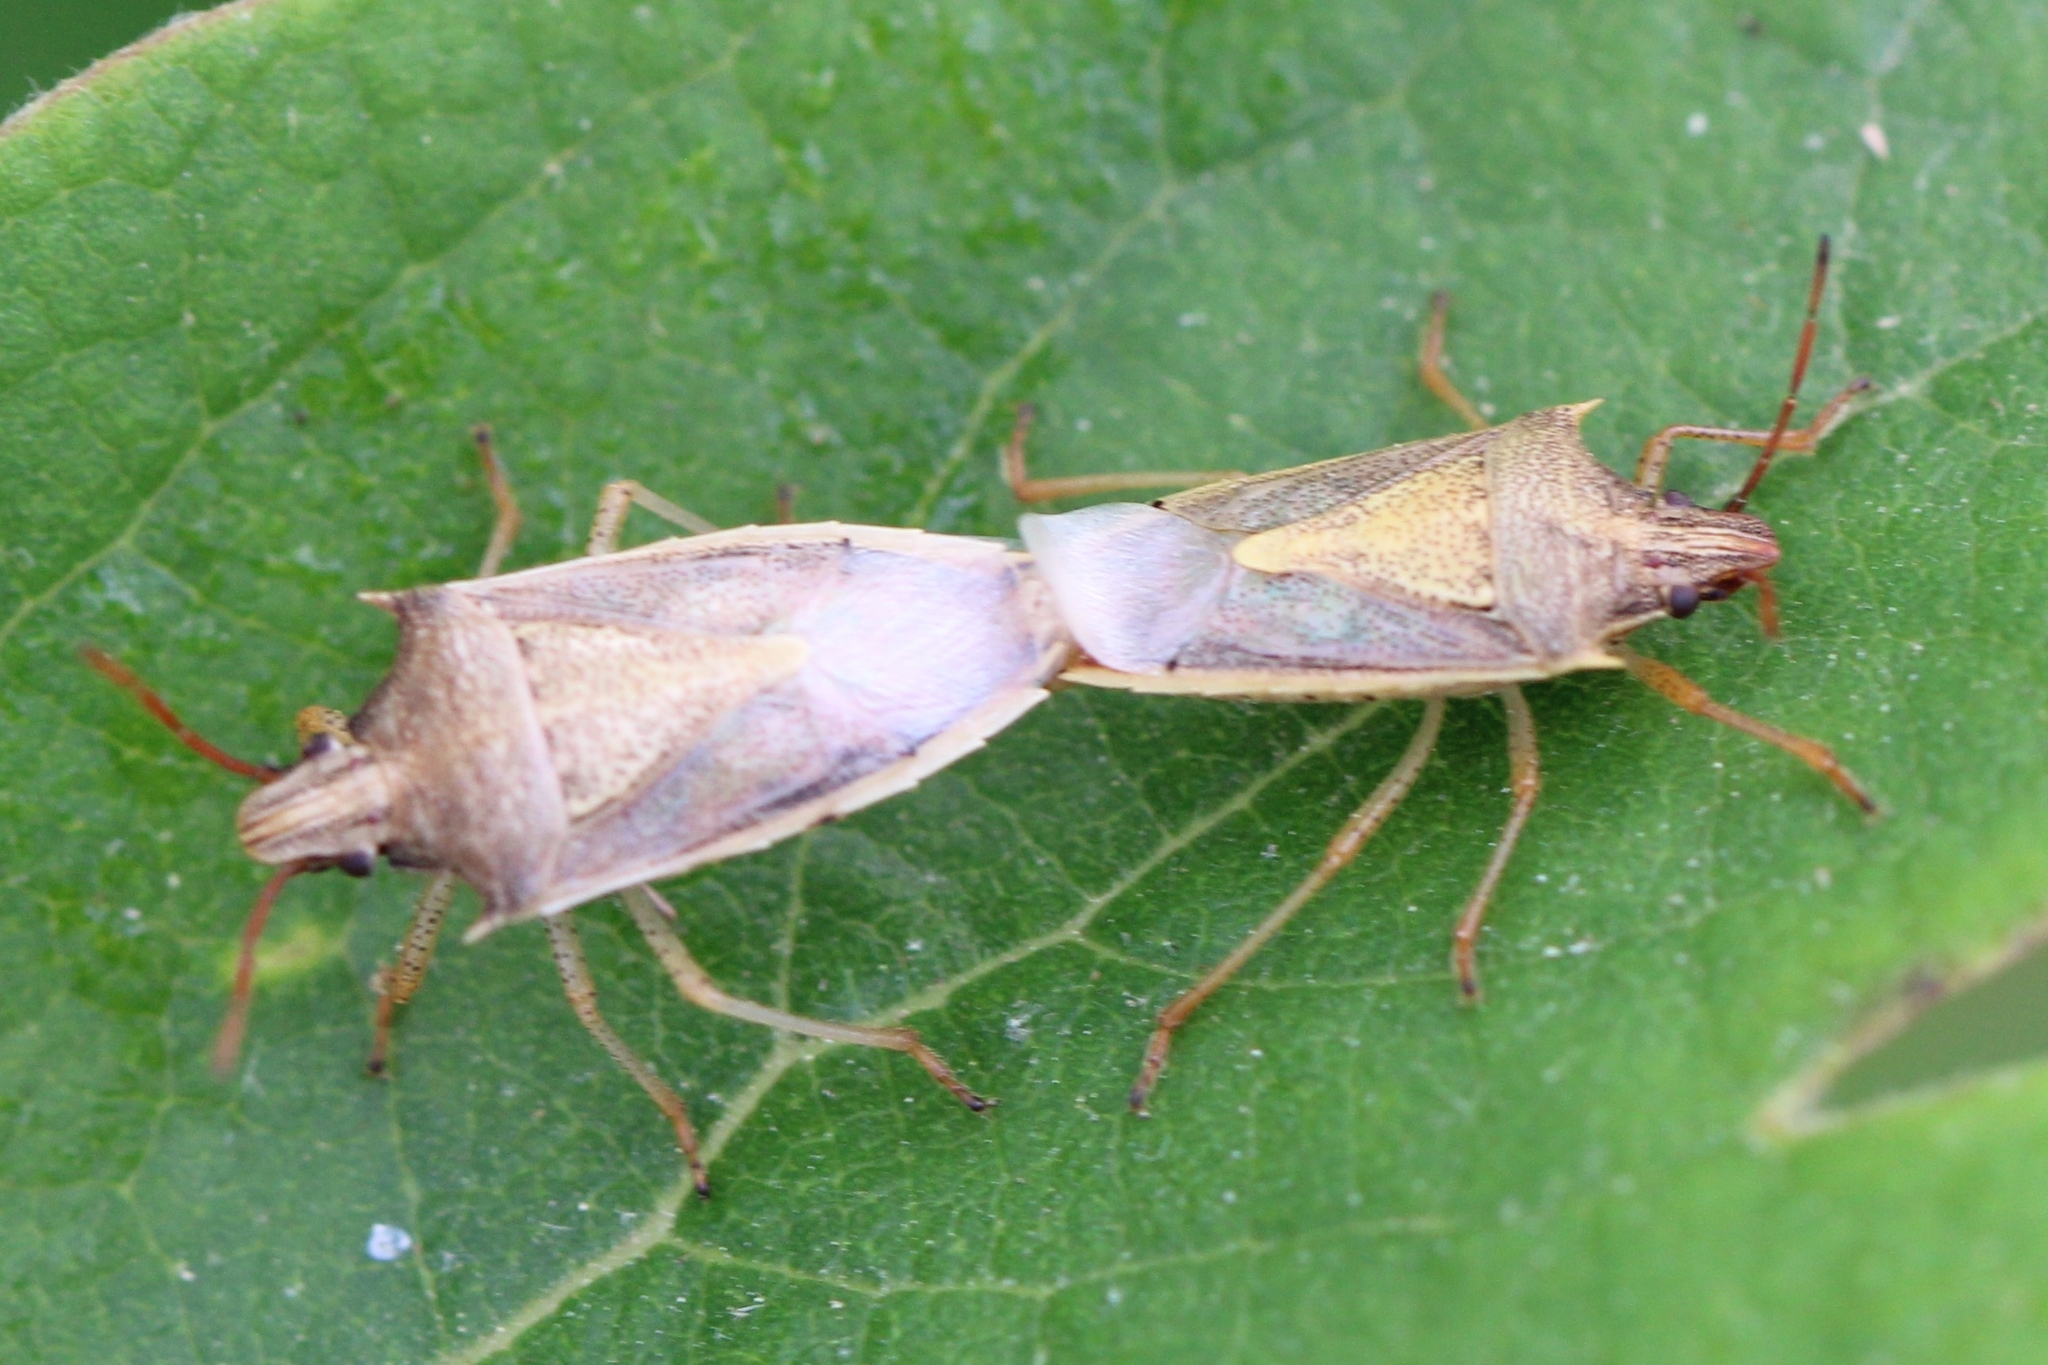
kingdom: Animalia
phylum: Arthropoda
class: Insecta
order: Hemiptera
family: Pentatomidae
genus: Oebalus
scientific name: Oebalus pugnax
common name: Rice stink bug
